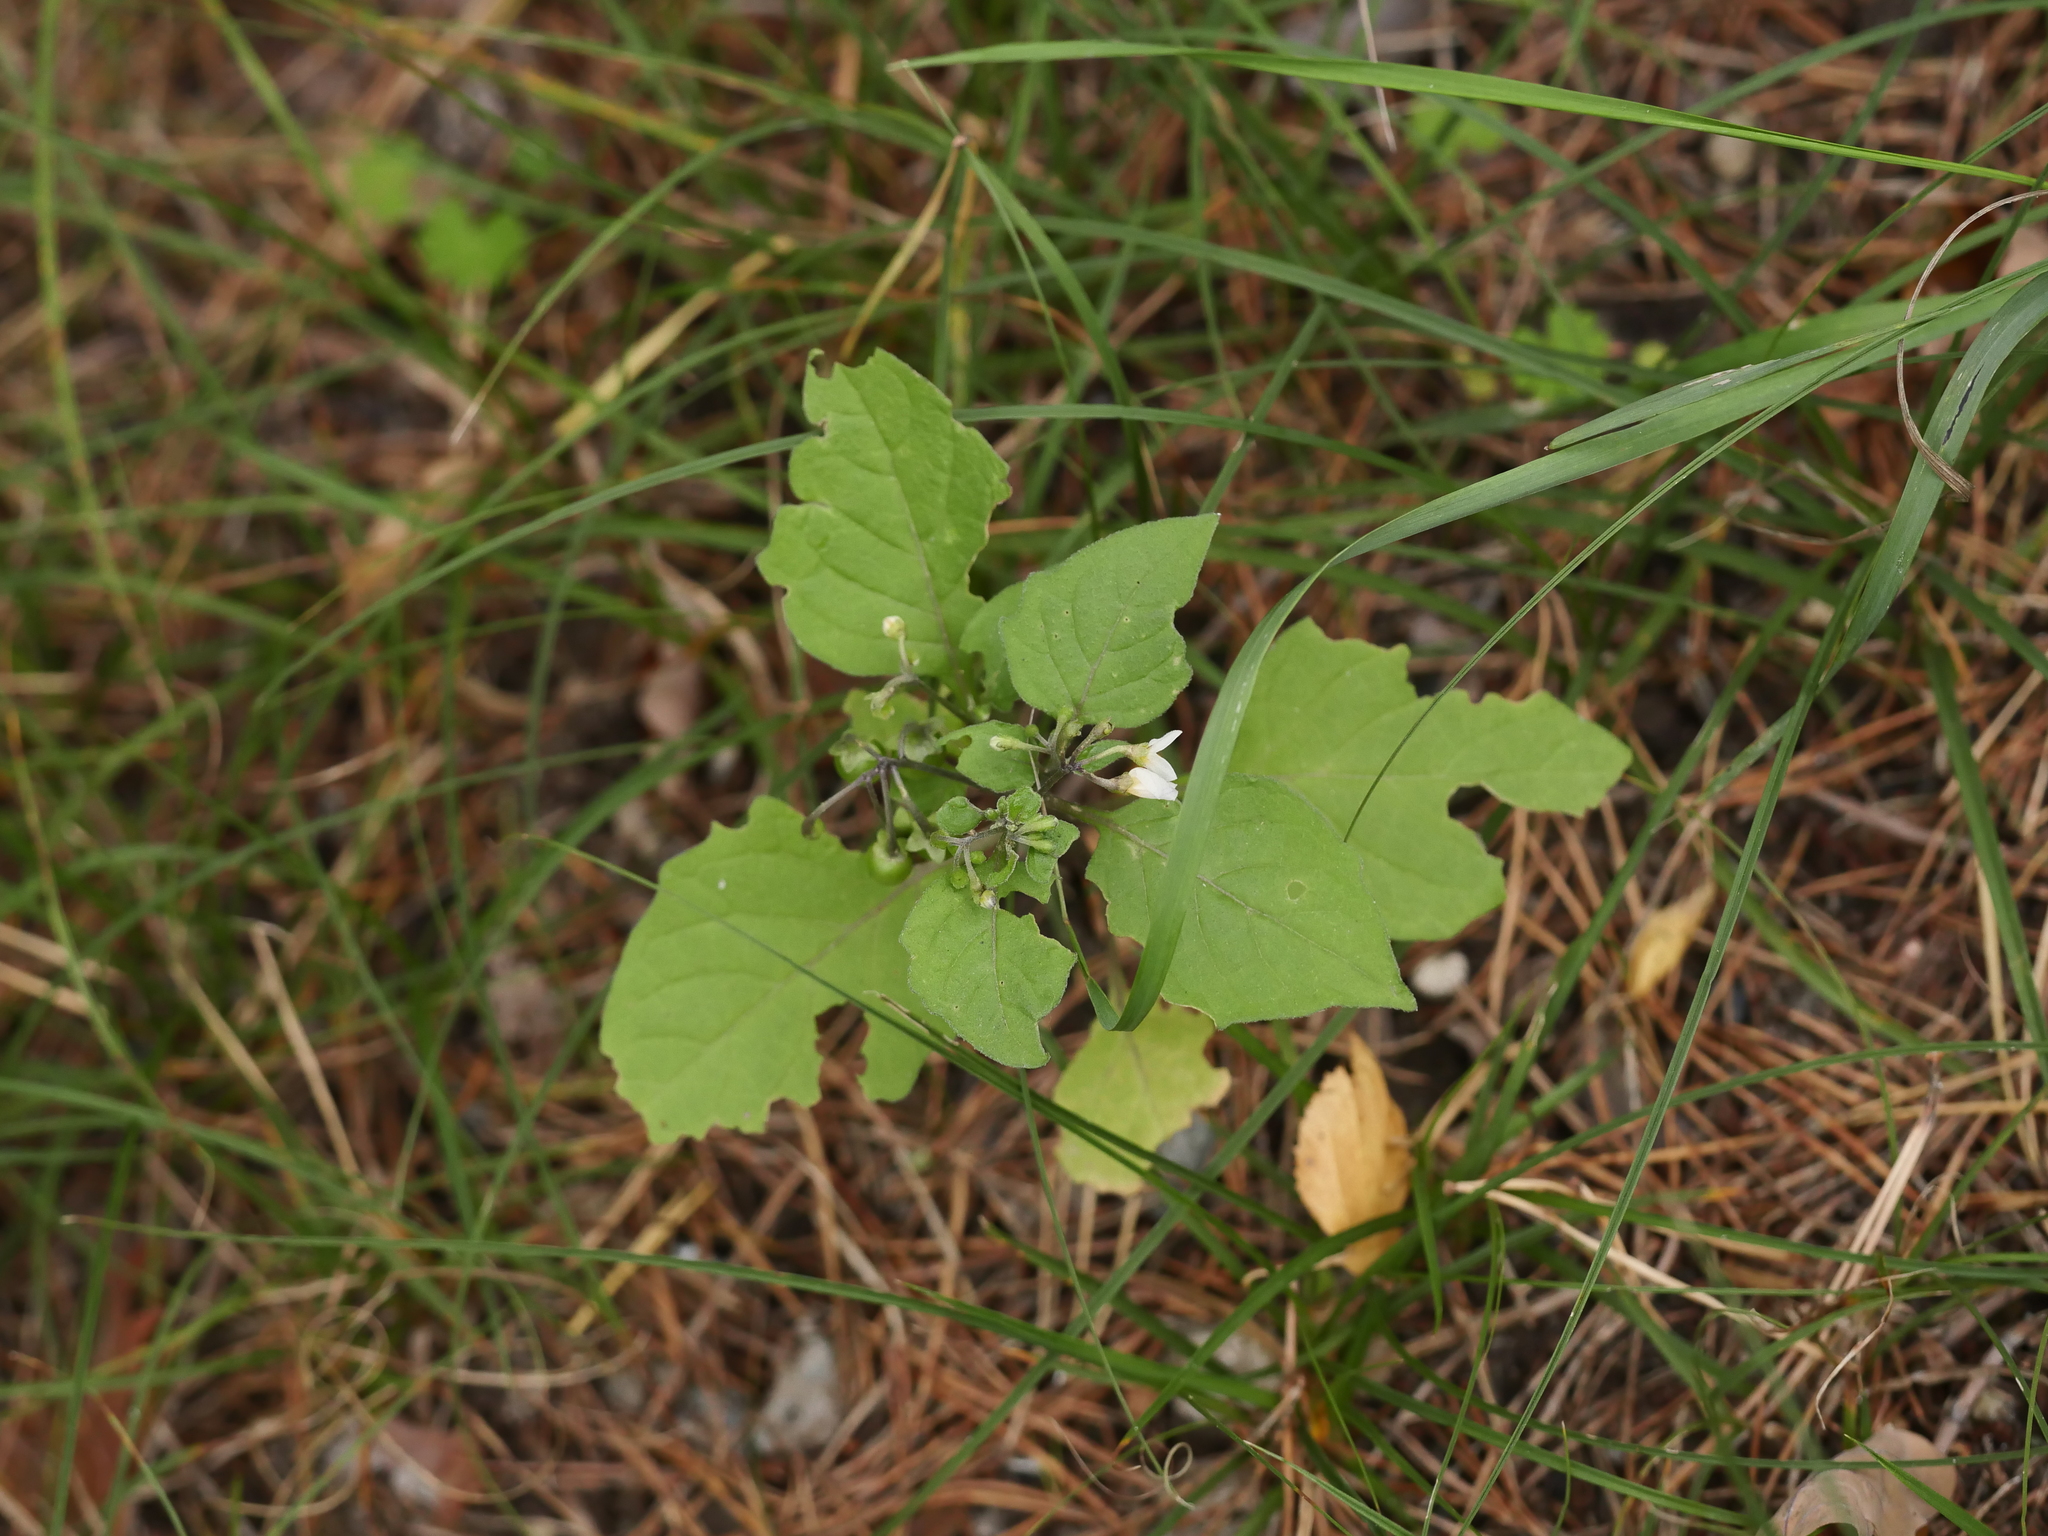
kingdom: Plantae
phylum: Tracheophyta
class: Magnoliopsida
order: Solanales
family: Solanaceae
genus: Solanum
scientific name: Solanum nigrum
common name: Black nightshade
